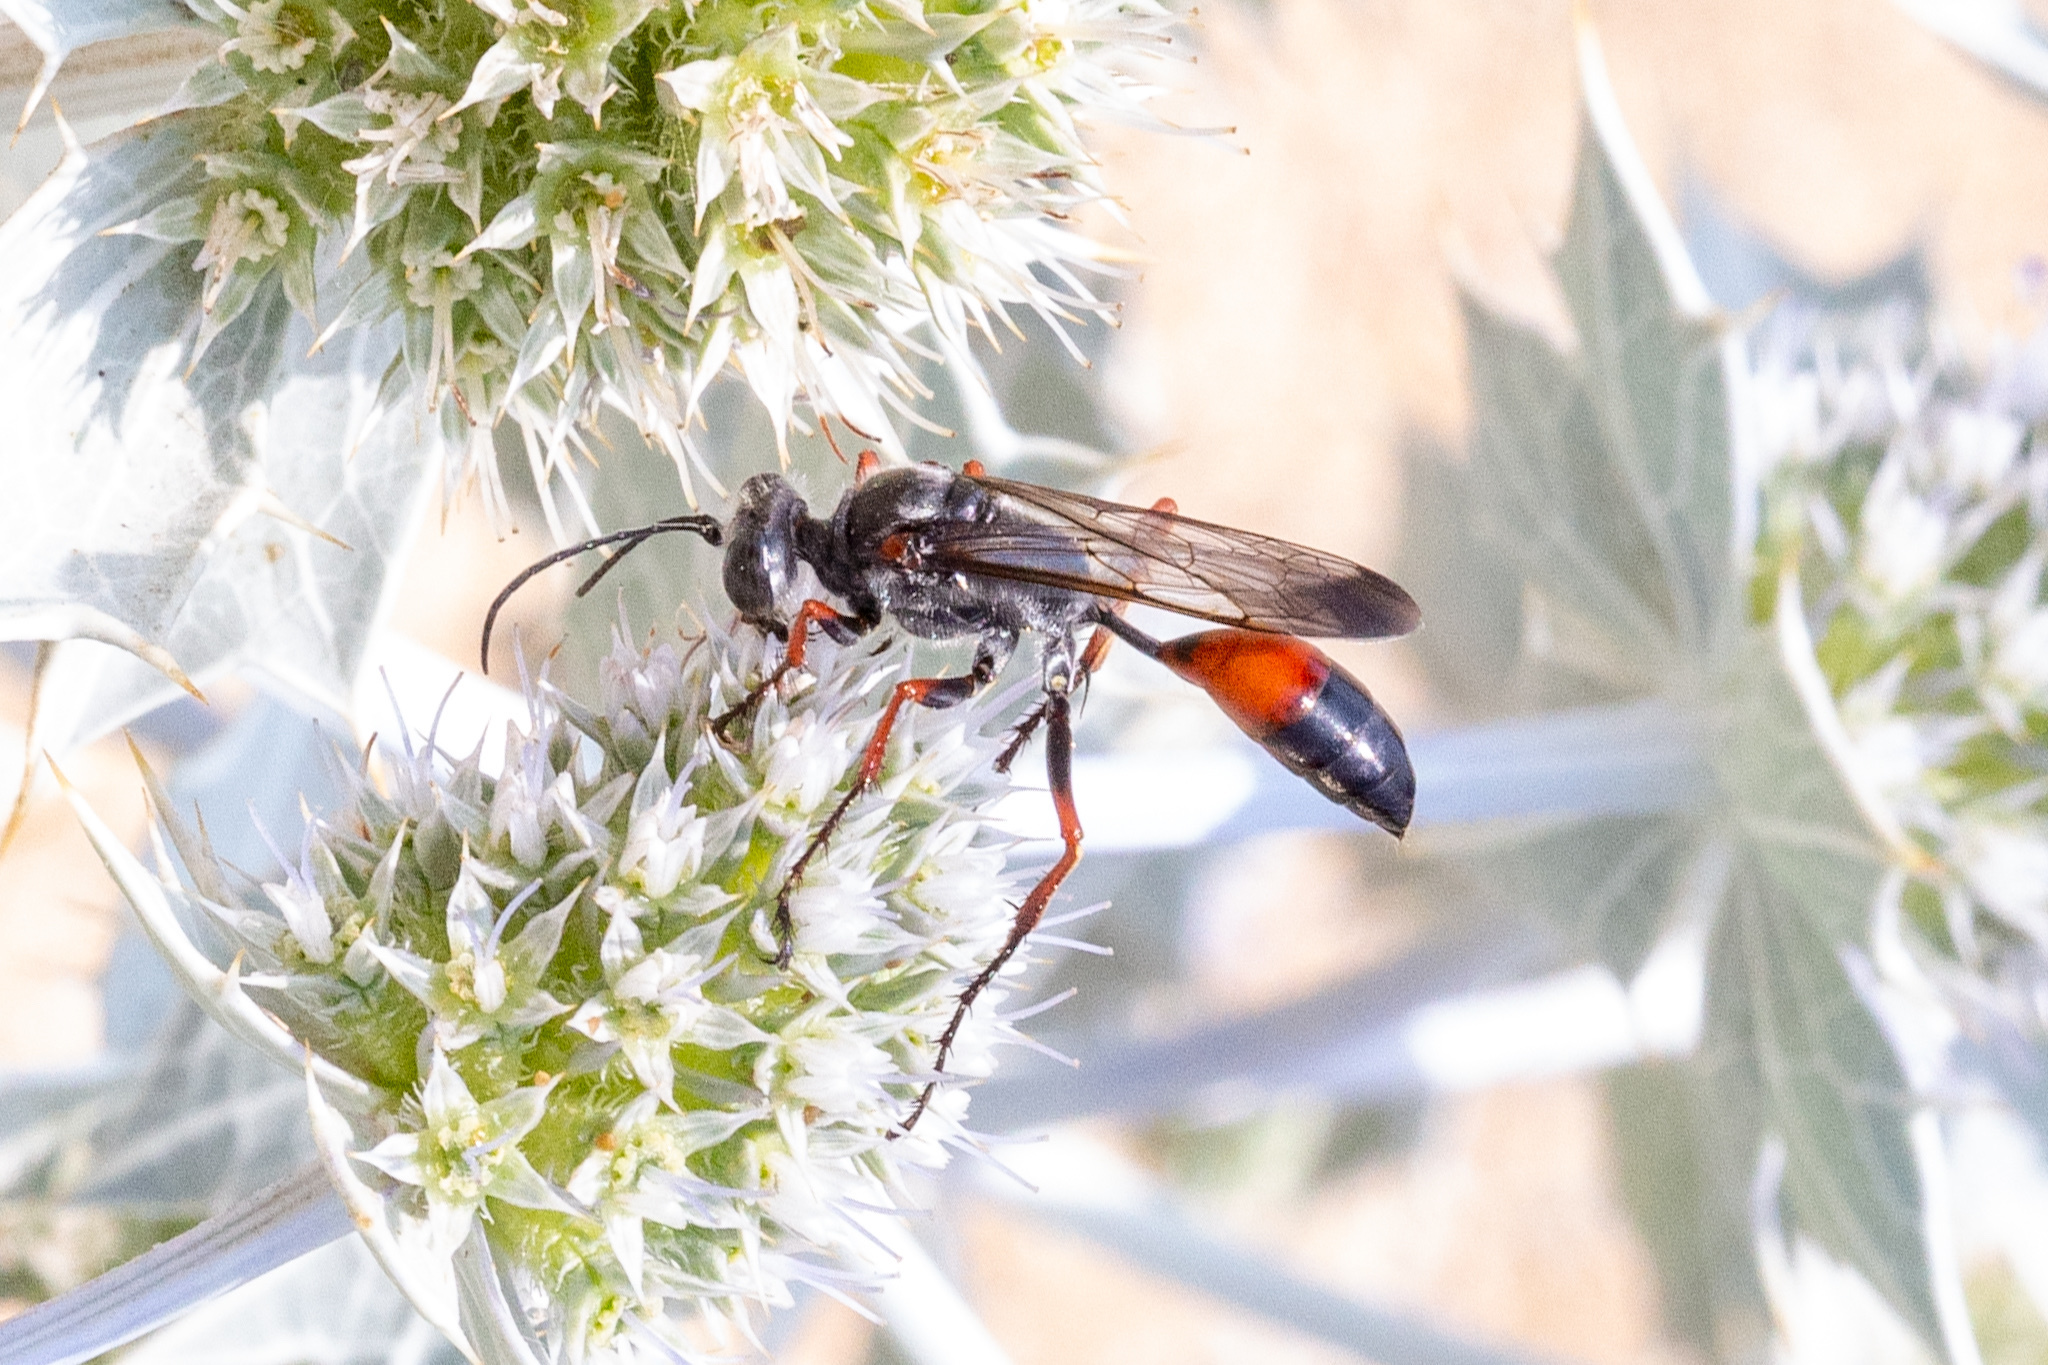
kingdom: Animalia
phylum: Arthropoda
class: Insecta
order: Hymenoptera
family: Sphecidae
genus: Sphex
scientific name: Sphex pruinosus
